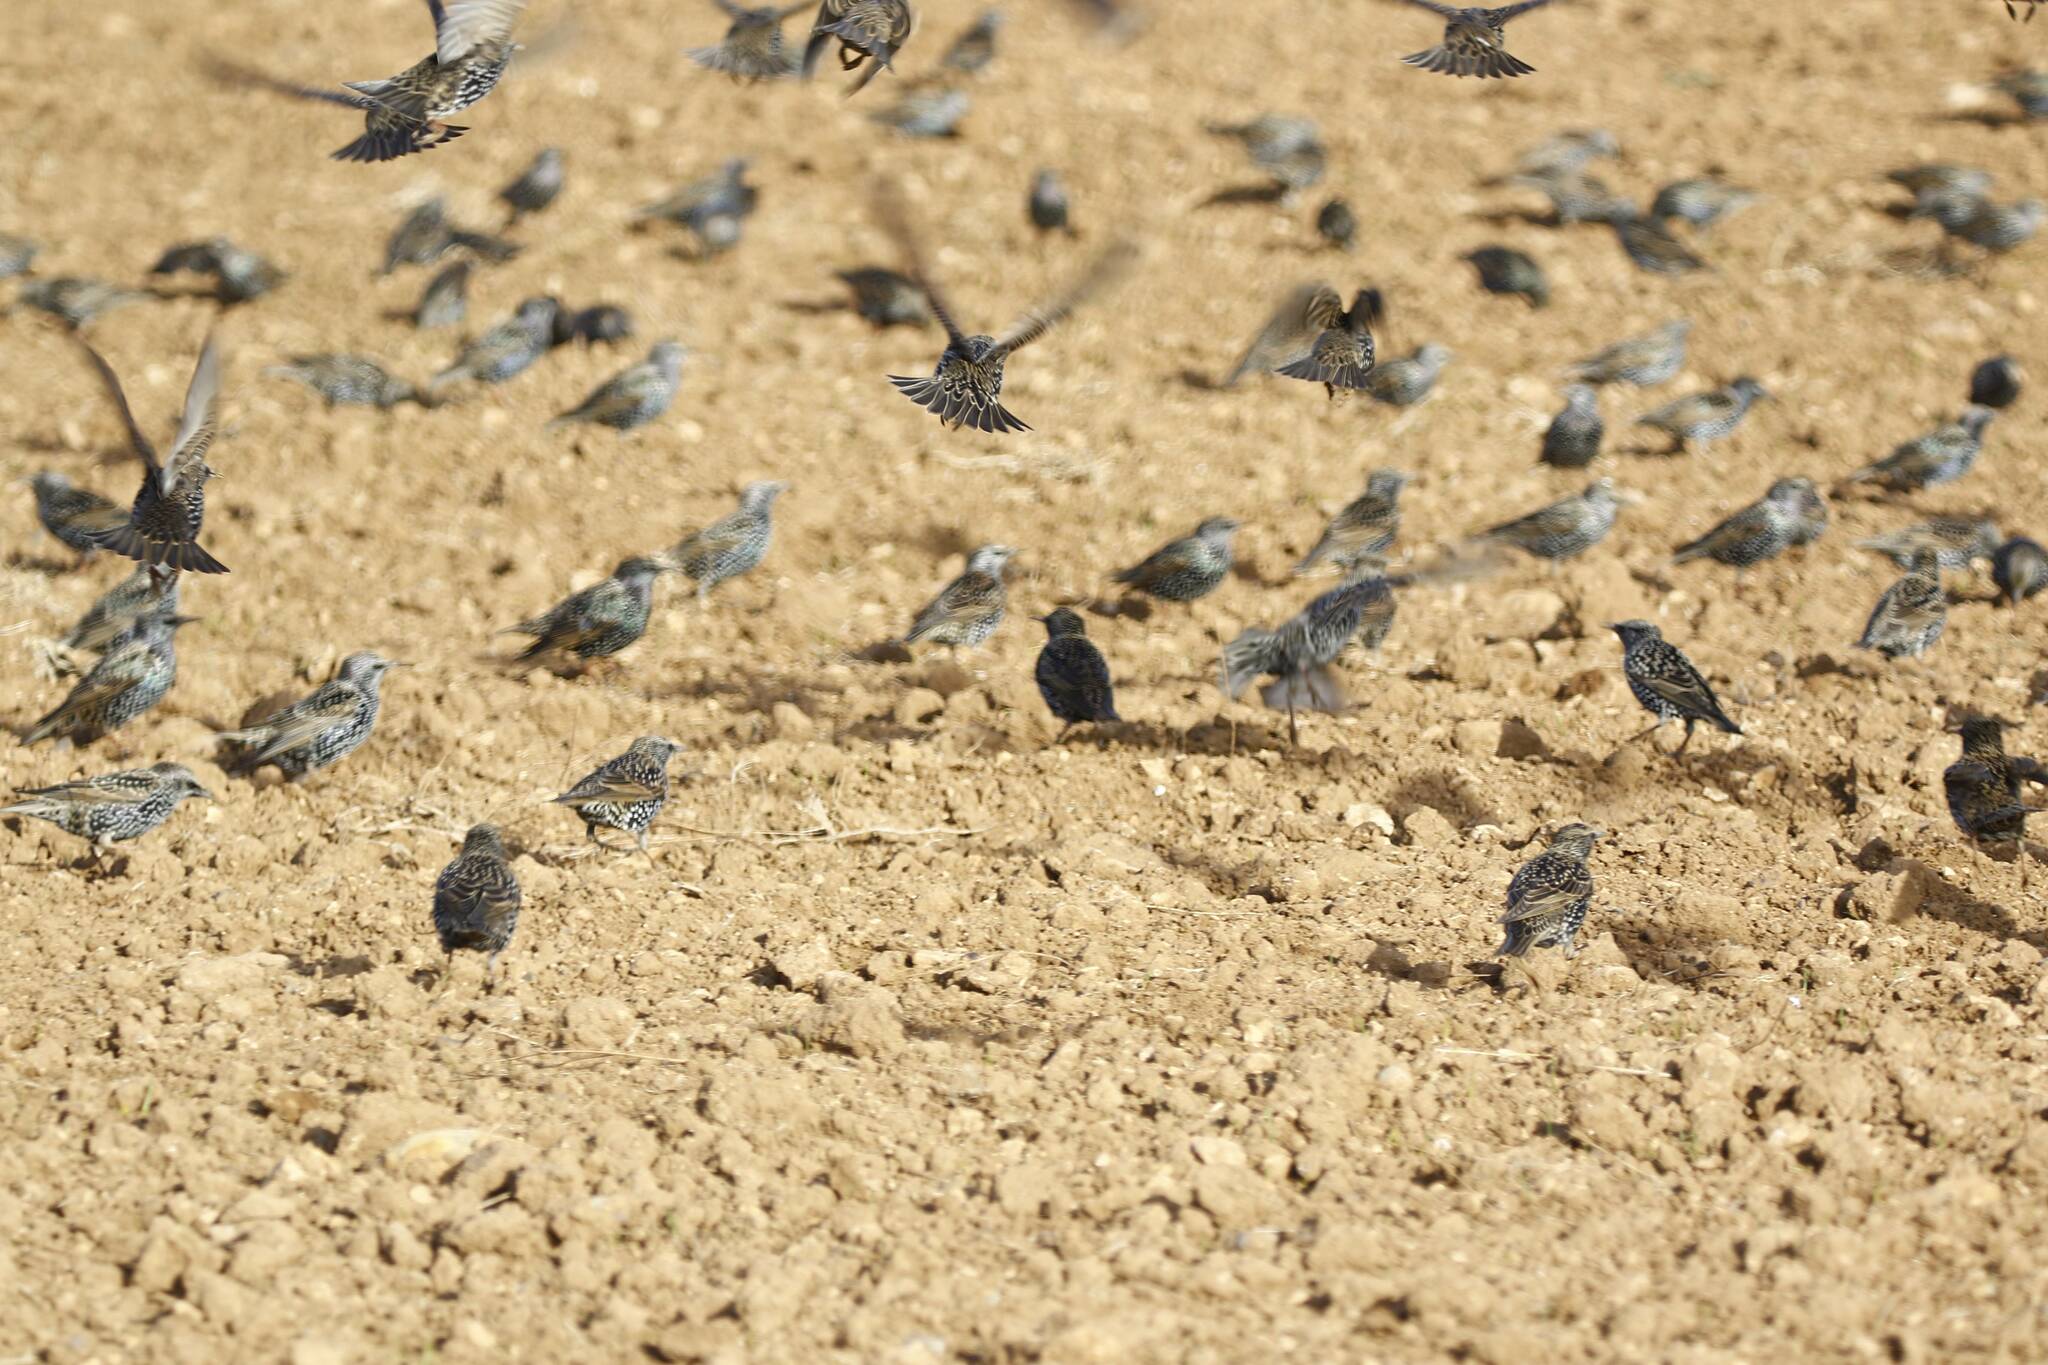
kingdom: Animalia
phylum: Chordata
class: Aves
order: Passeriformes
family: Sturnidae
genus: Sturnus
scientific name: Sturnus vulgaris
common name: Common starling
